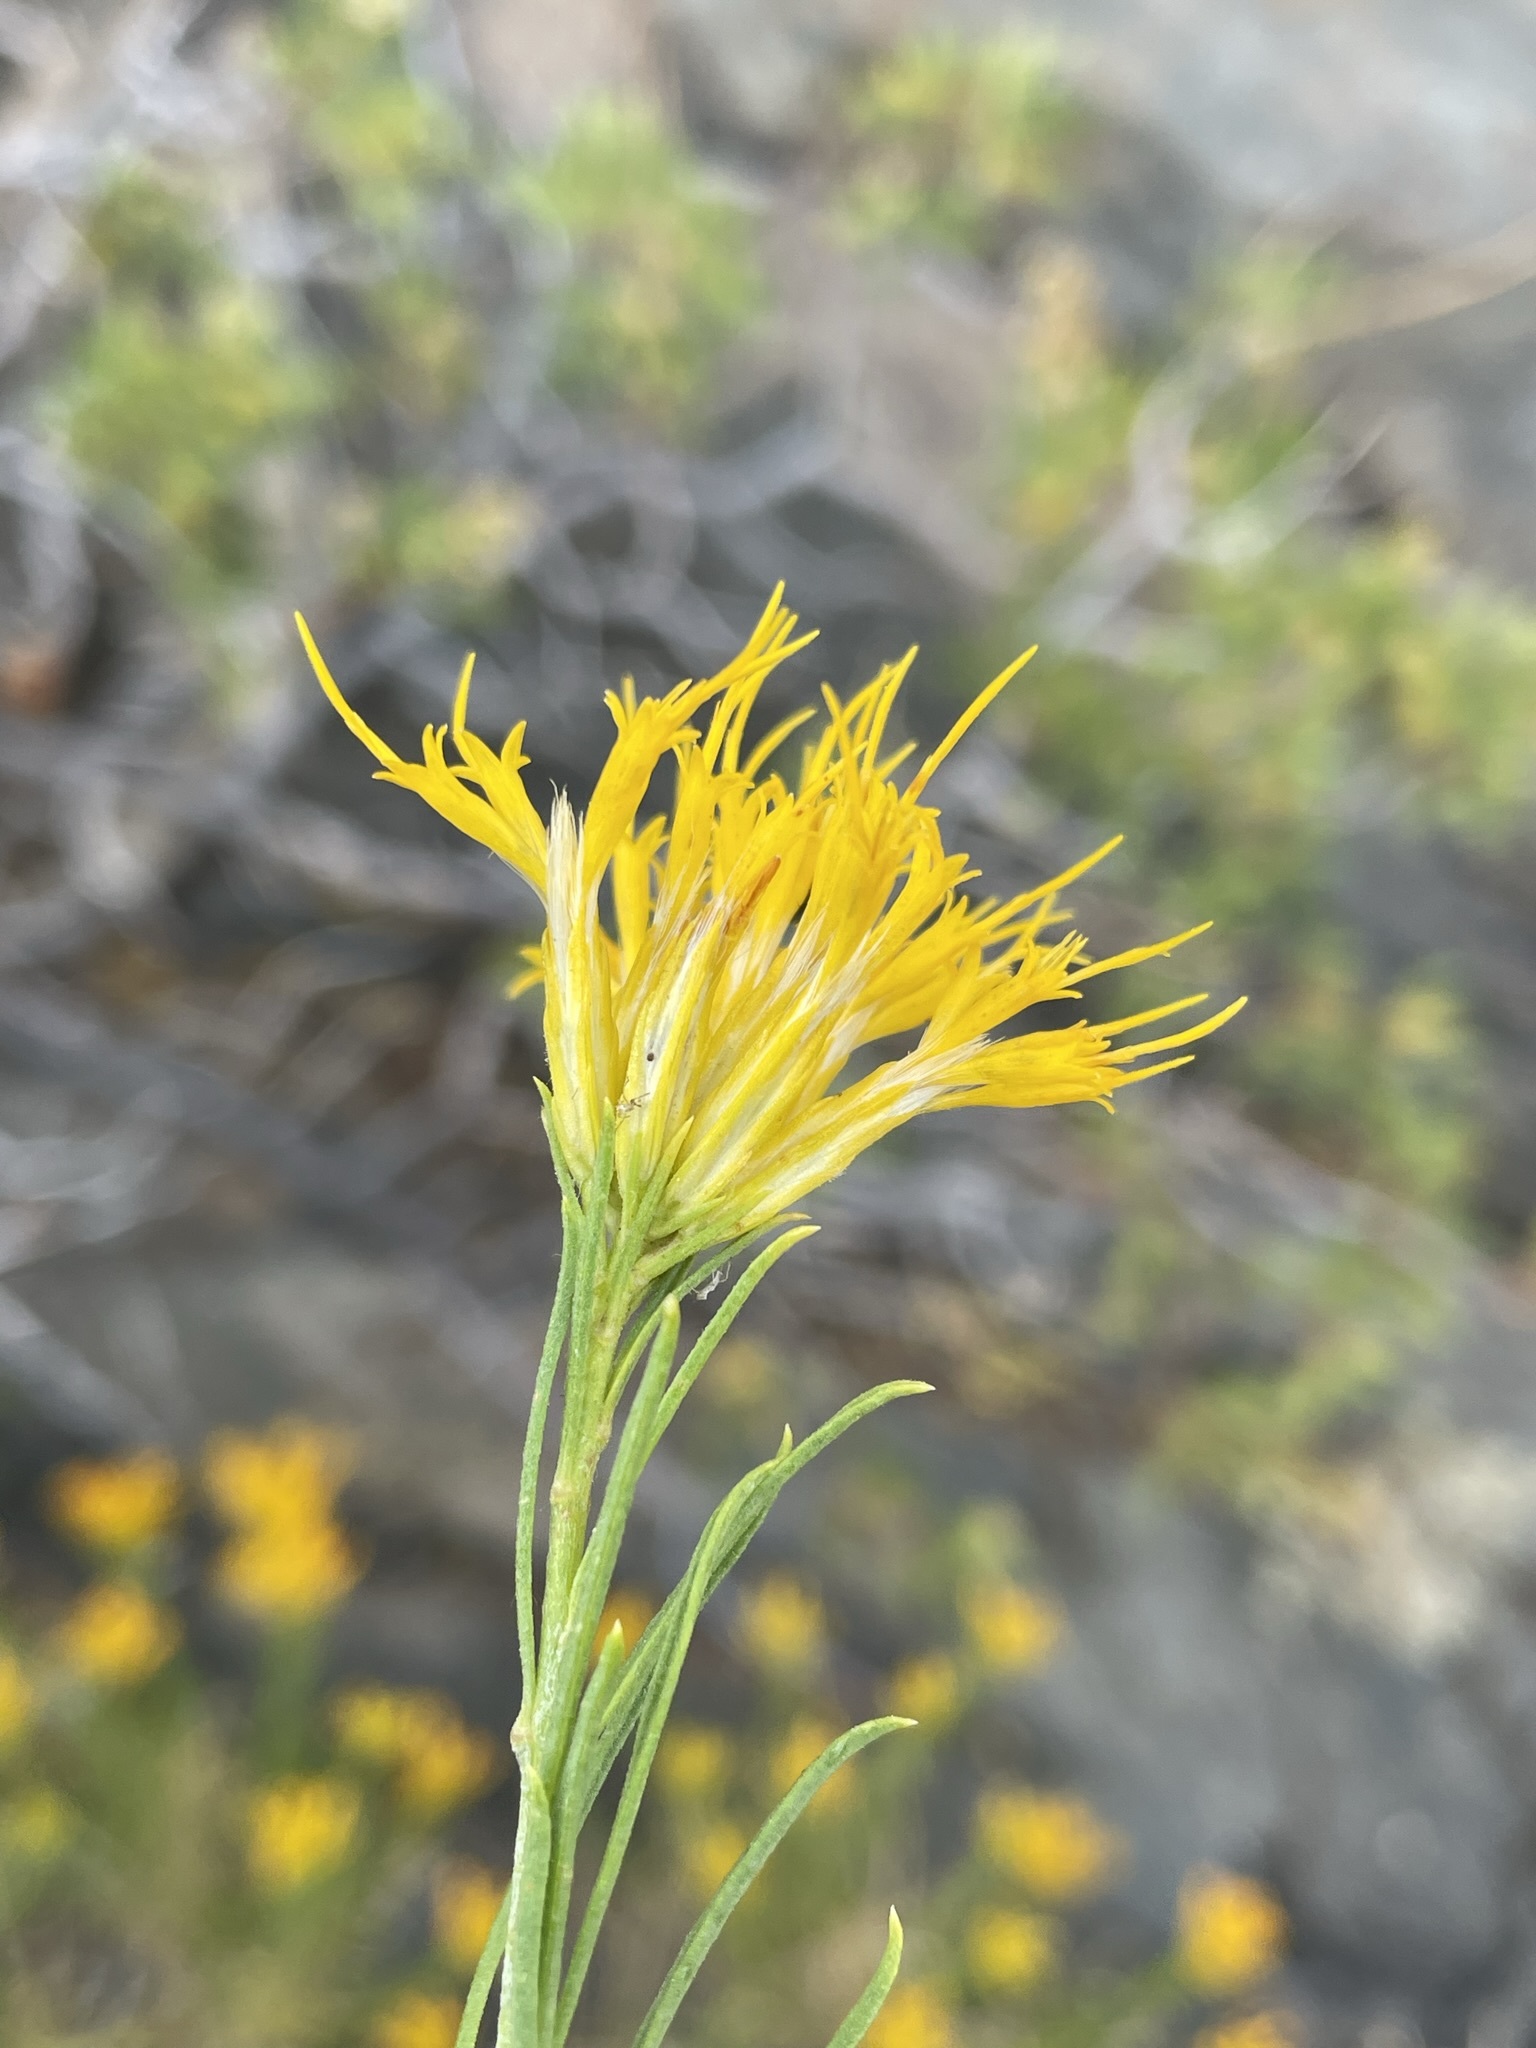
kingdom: Plantae
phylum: Tracheophyta
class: Magnoliopsida
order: Asterales
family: Asteraceae
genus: Ericameria
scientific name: Ericameria nauseosa
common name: Rubber rabbitbrush
